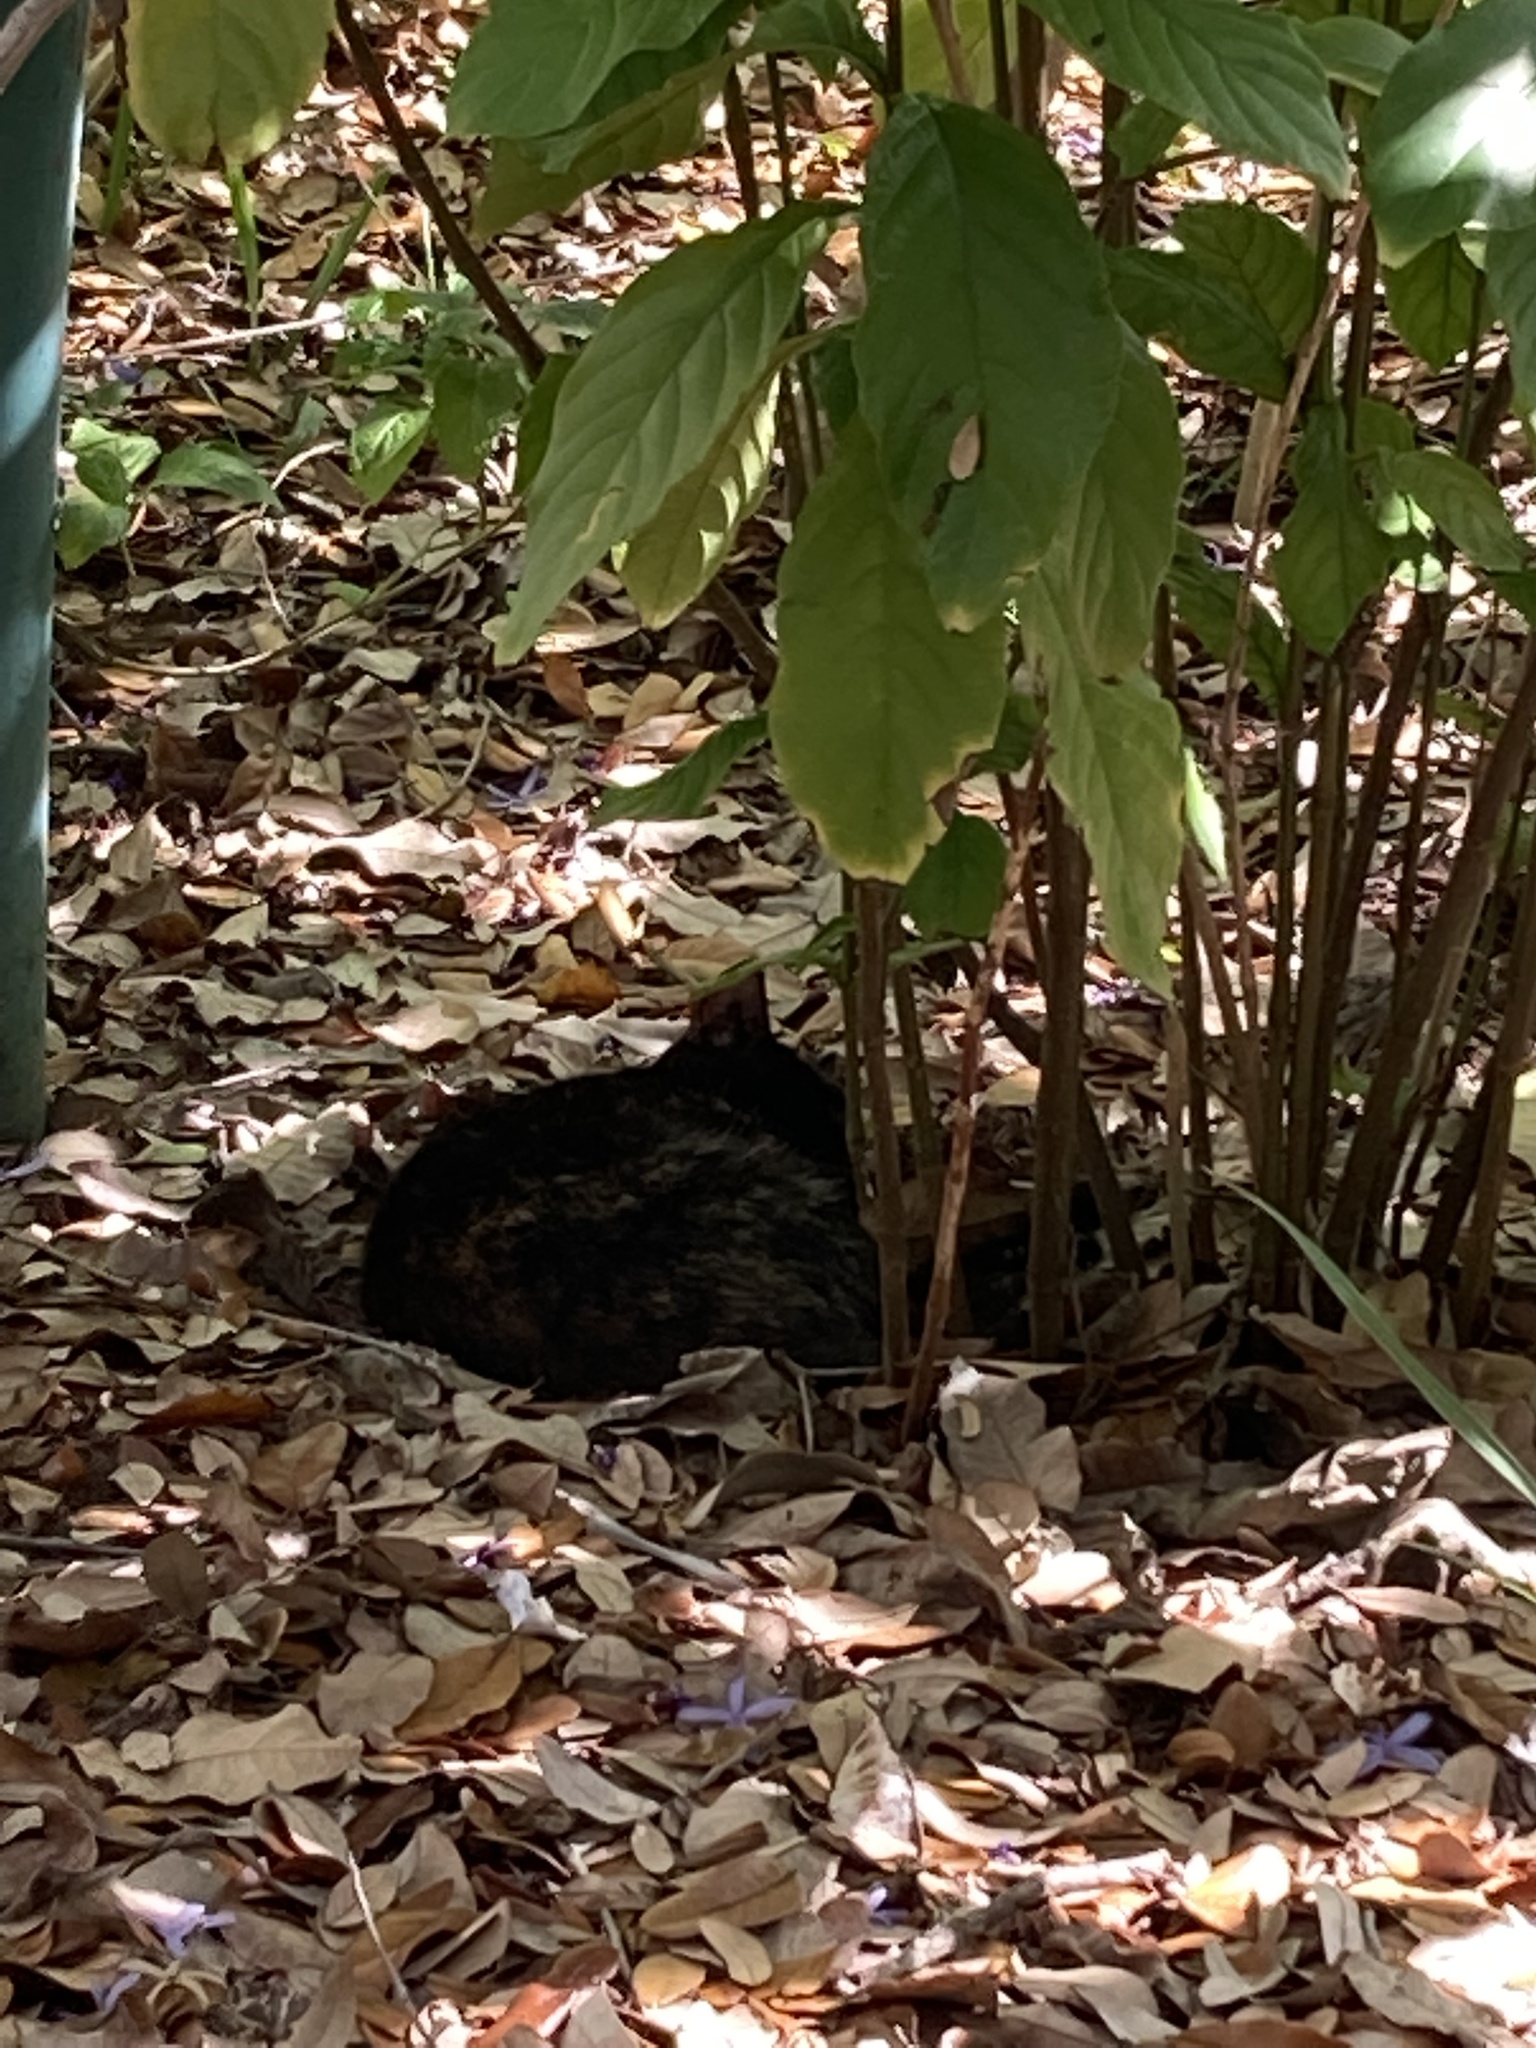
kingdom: Animalia
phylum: Chordata
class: Mammalia
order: Carnivora
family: Felidae
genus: Felis
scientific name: Felis catus
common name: Domestic cat
